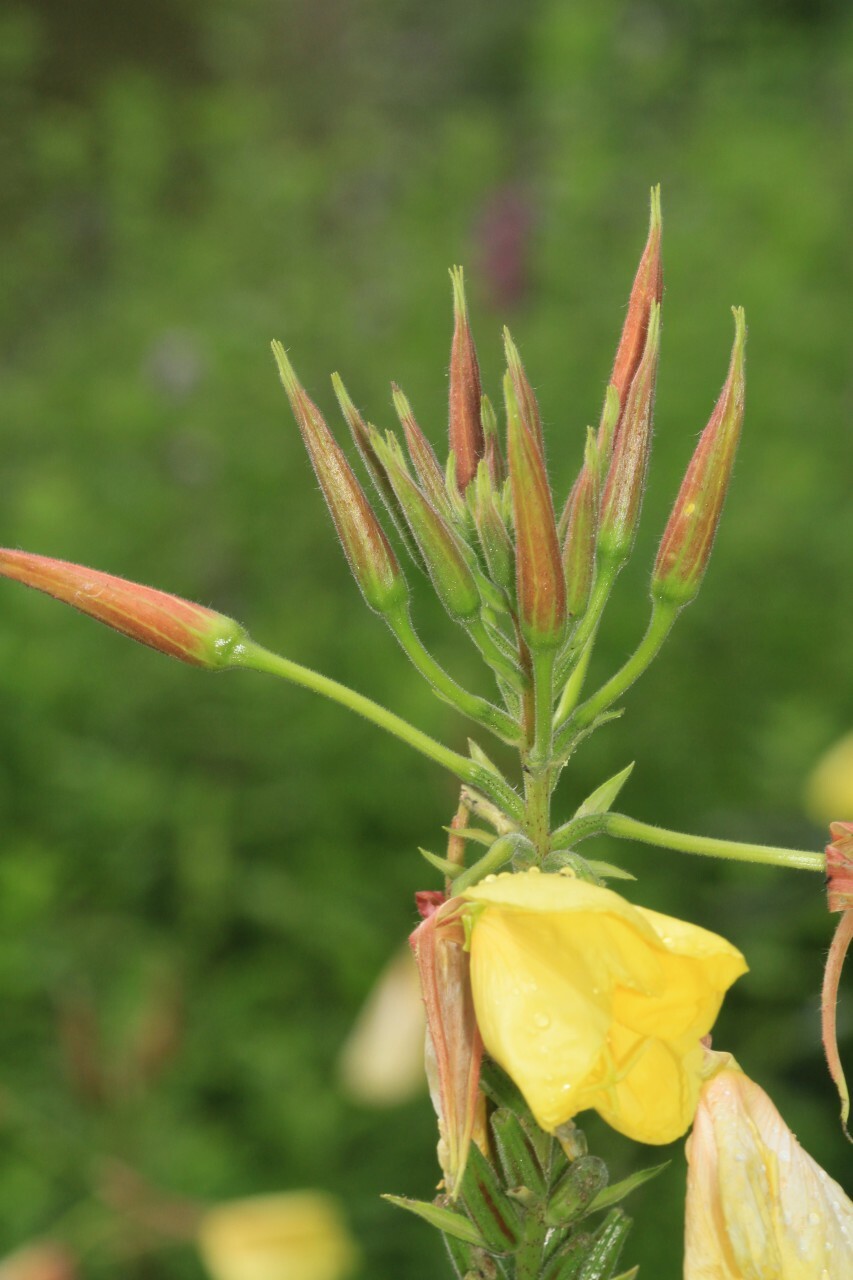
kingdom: Plantae
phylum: Tracheophyta
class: Magnoliopsida
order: Myrtales
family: Onagraceae
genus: Oenothera
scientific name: Oenothera glazioviana
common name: Large-flowered evening-primrose
